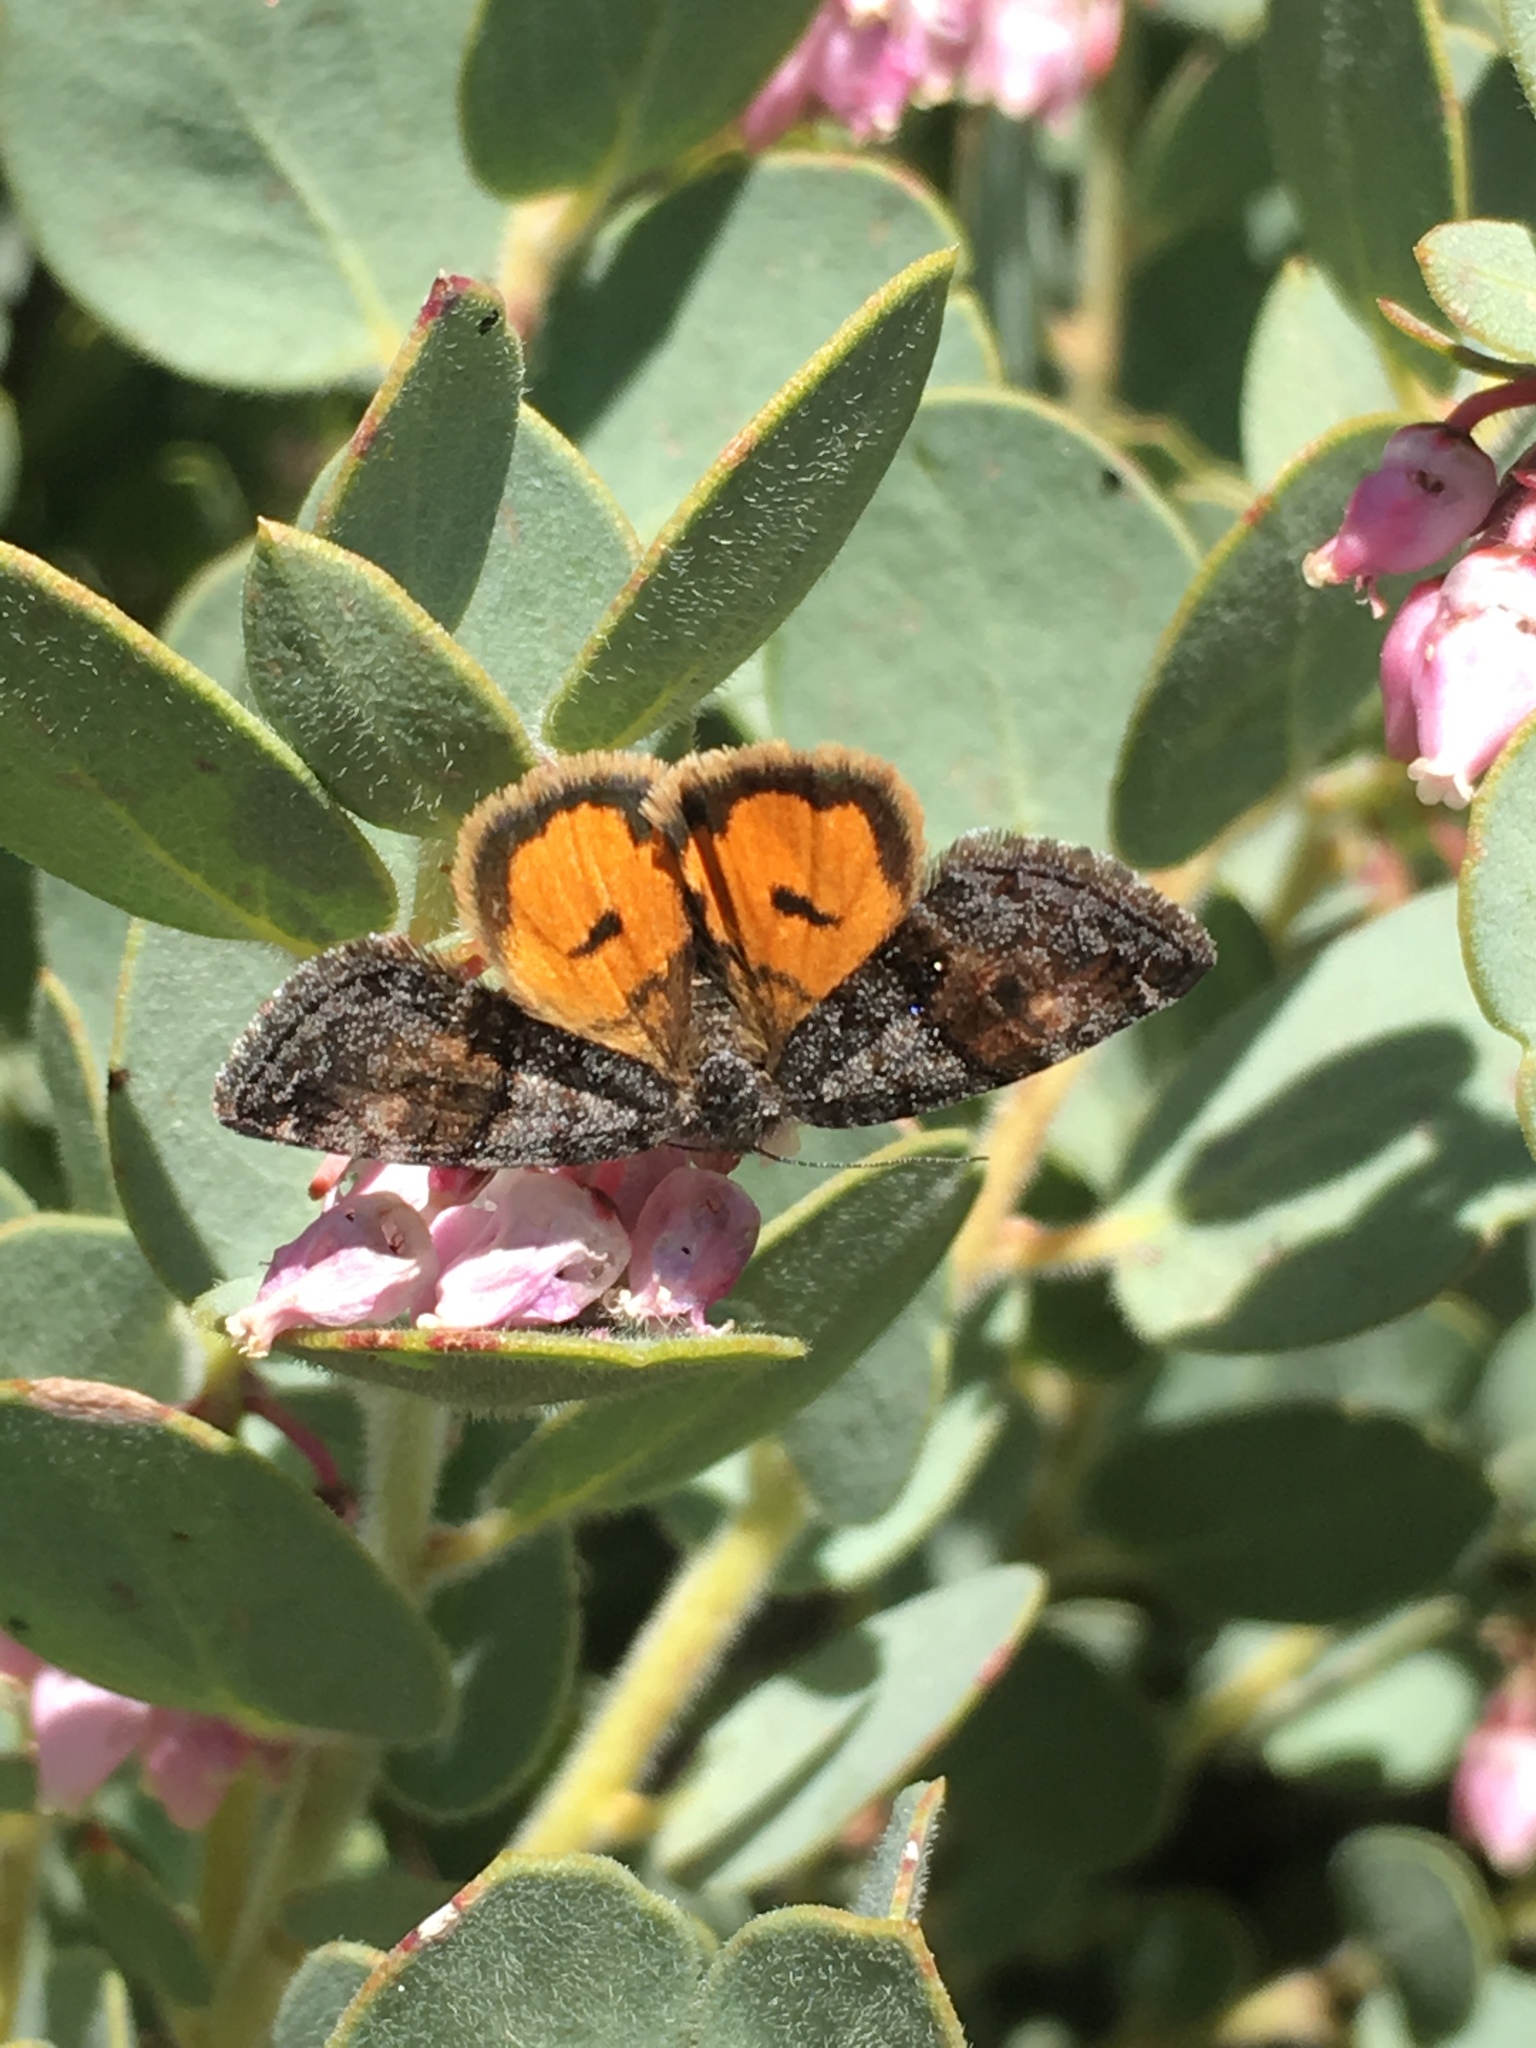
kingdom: Animalia
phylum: Arthropoda
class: Insecta
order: Lepidoptera
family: Noctuidae
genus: Annaphila
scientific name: Annaphila depicta
